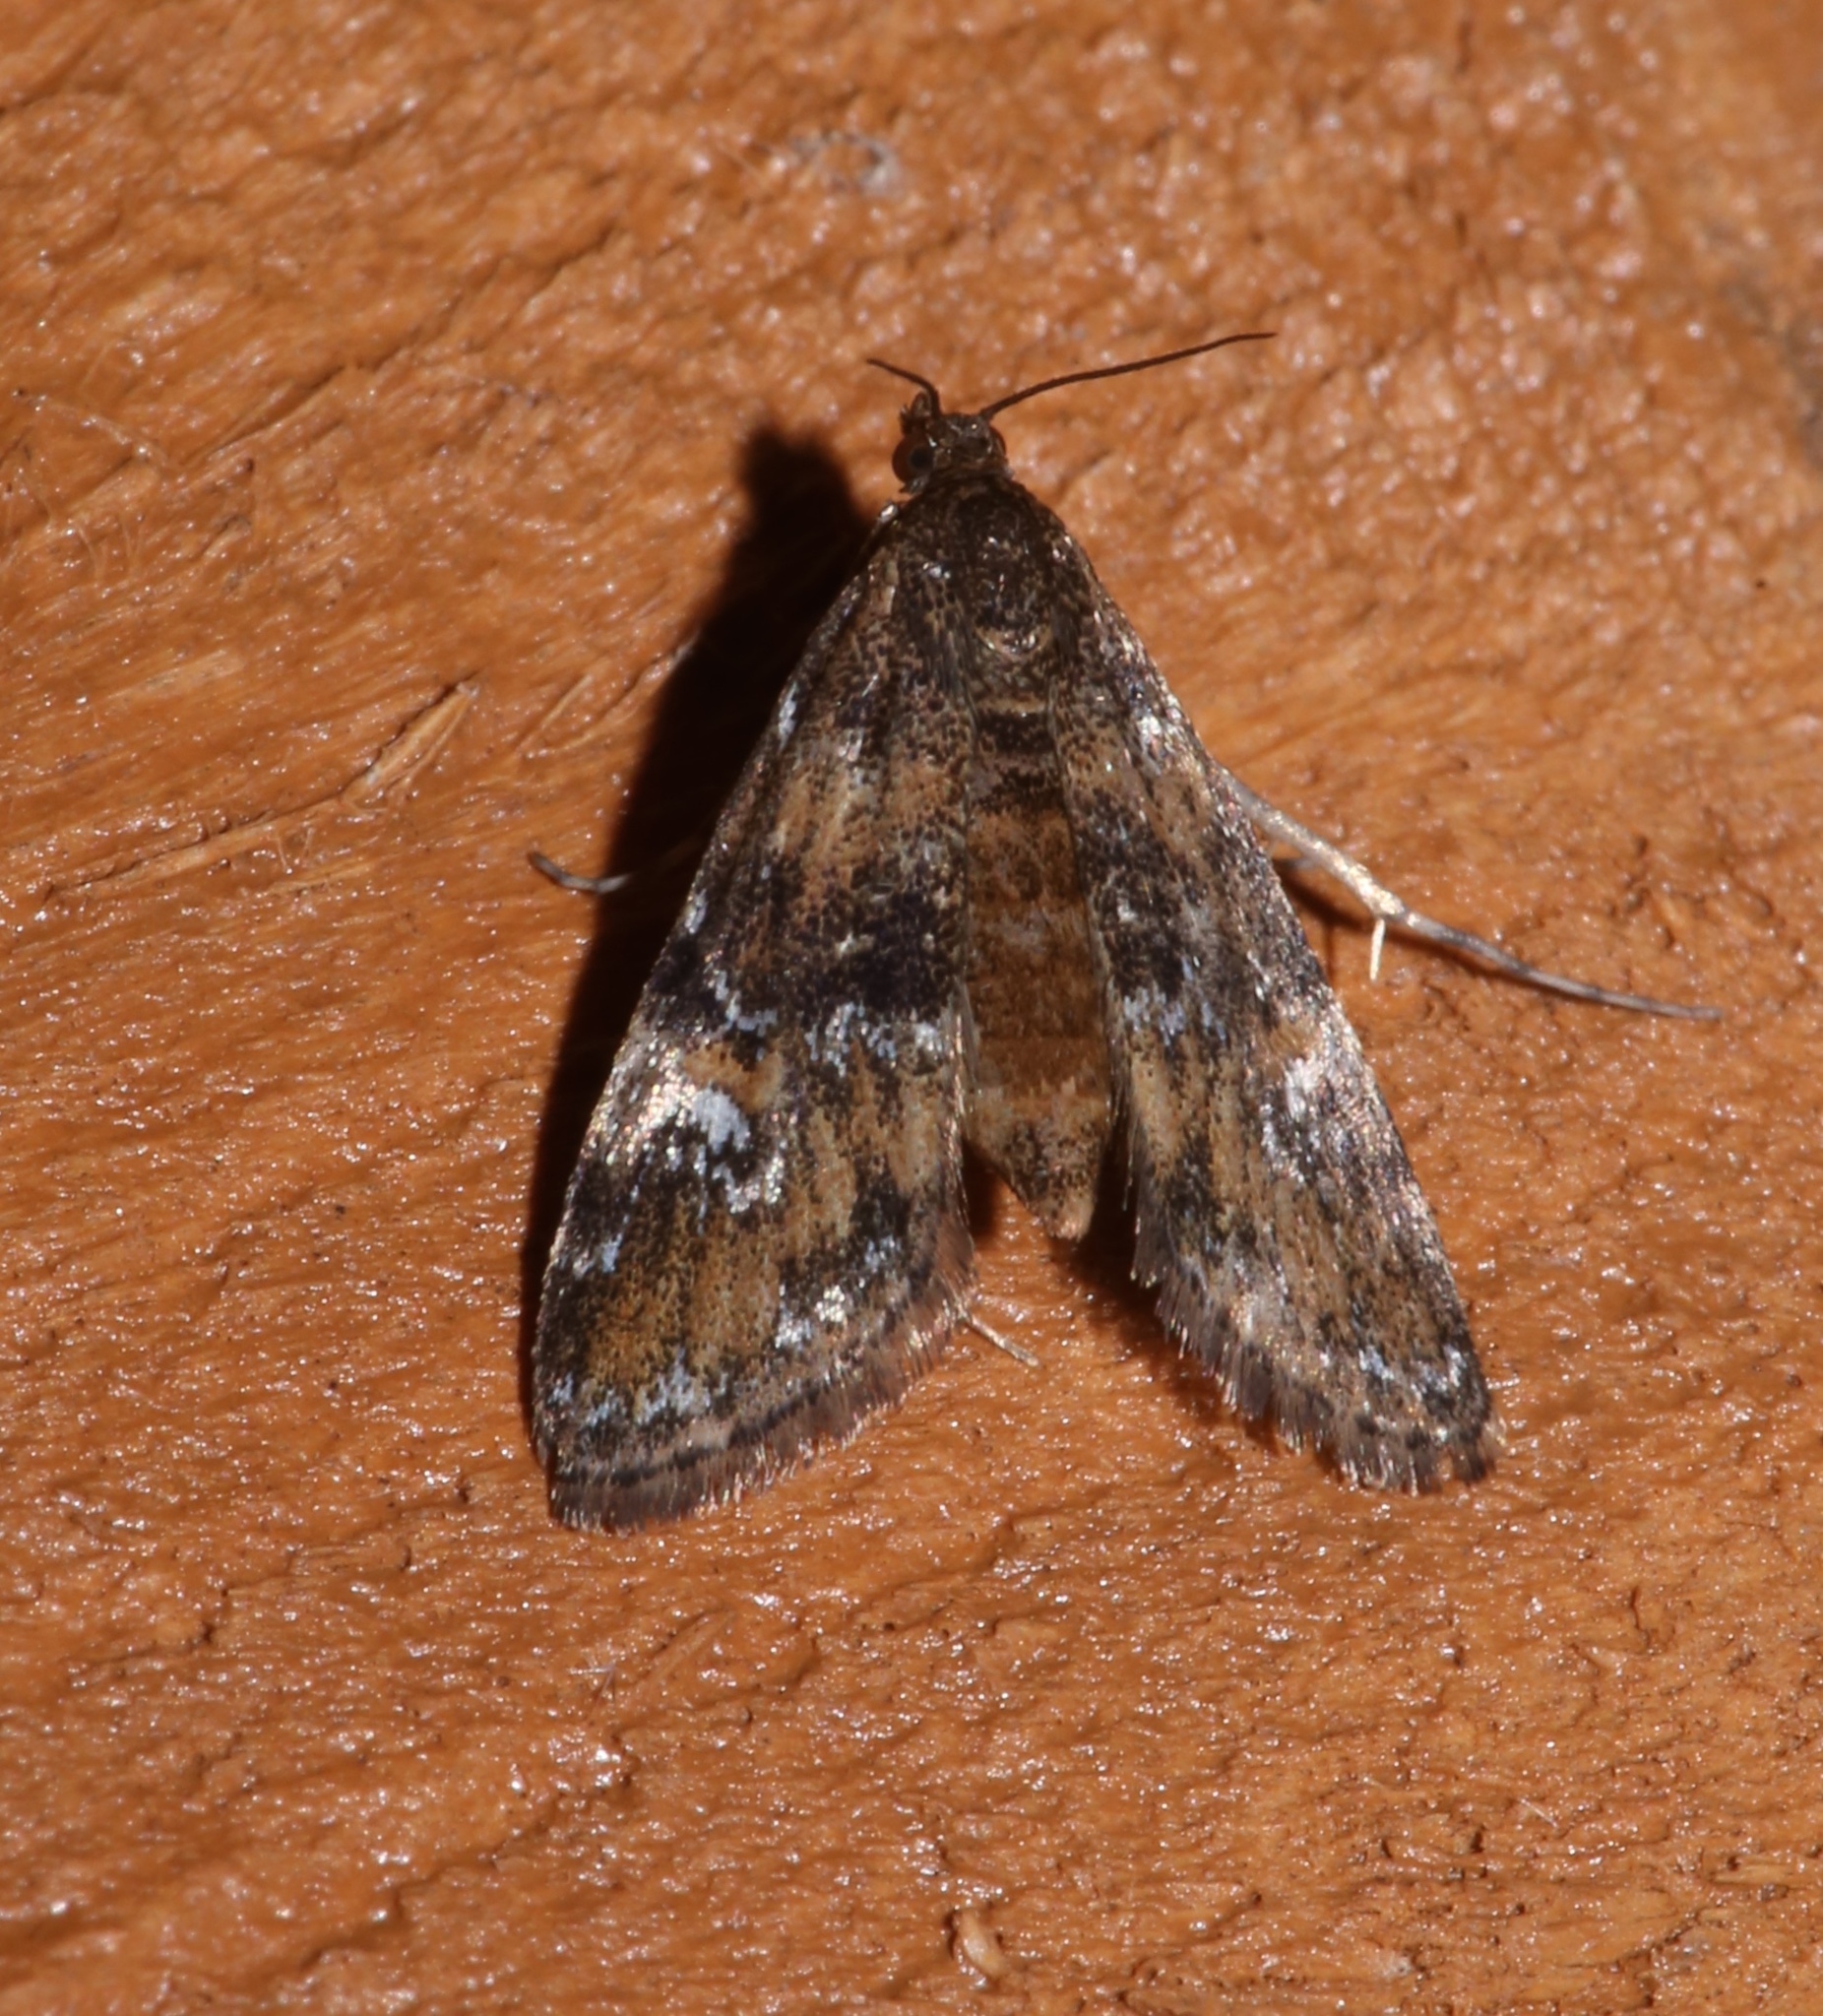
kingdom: Animalia
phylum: Arthropoda
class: Insecta
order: Lepidoptera
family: Crambidae
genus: Elophila
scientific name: Elophila obliteralis
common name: Waterlily leafcutter moth
